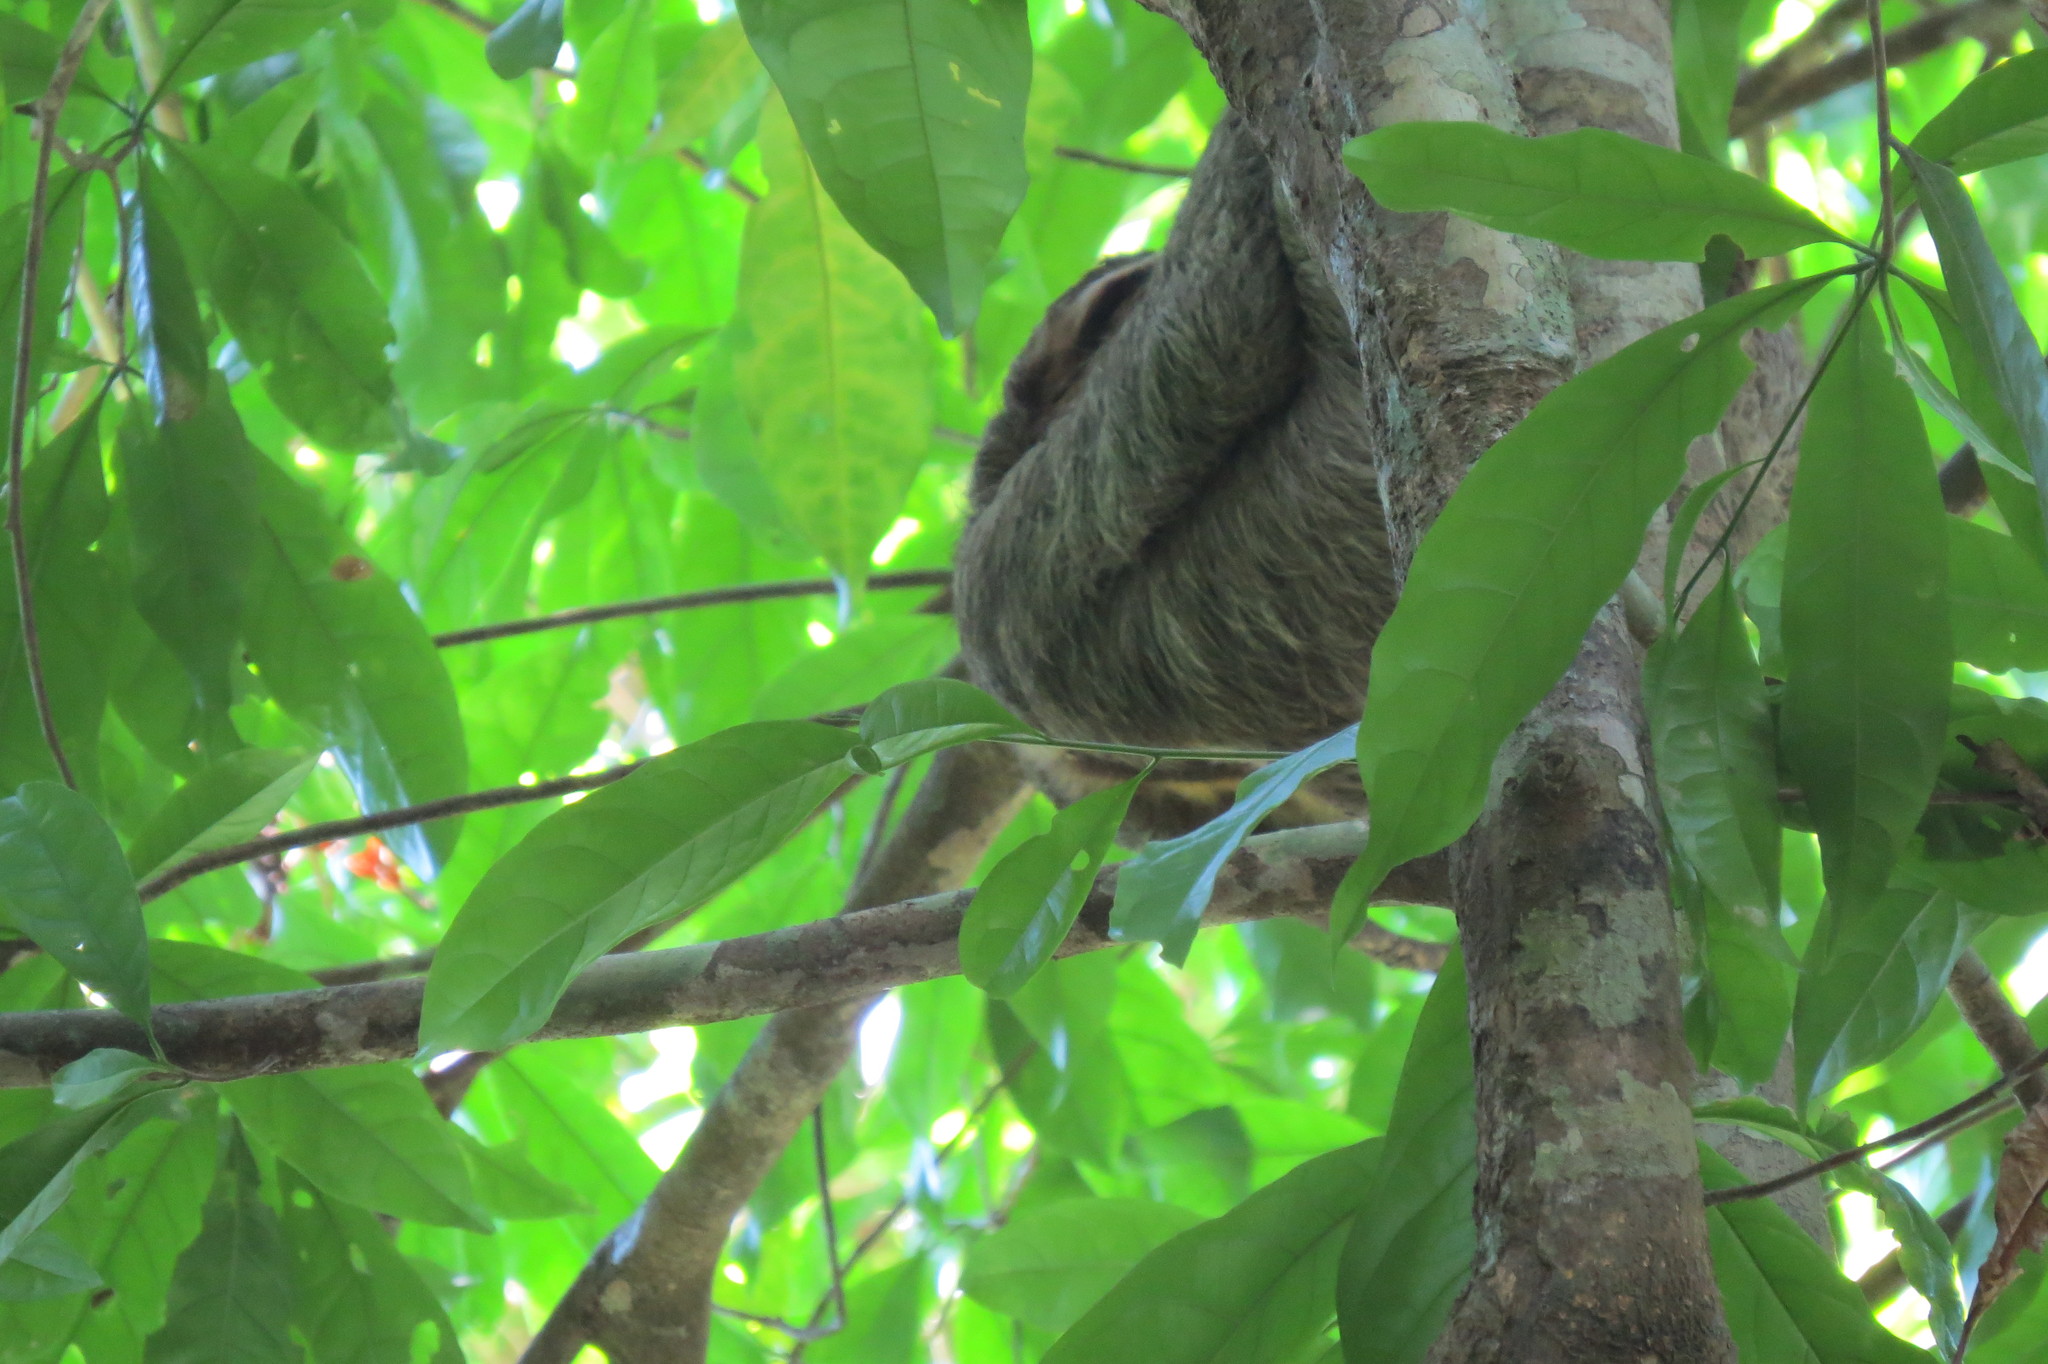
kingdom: Animalia
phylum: Chordata
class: Mammalia
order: Pilosa
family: Bradypodidae
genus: Bradypus
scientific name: Bradypus variegatus
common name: Brown-throated three-toed sloth
